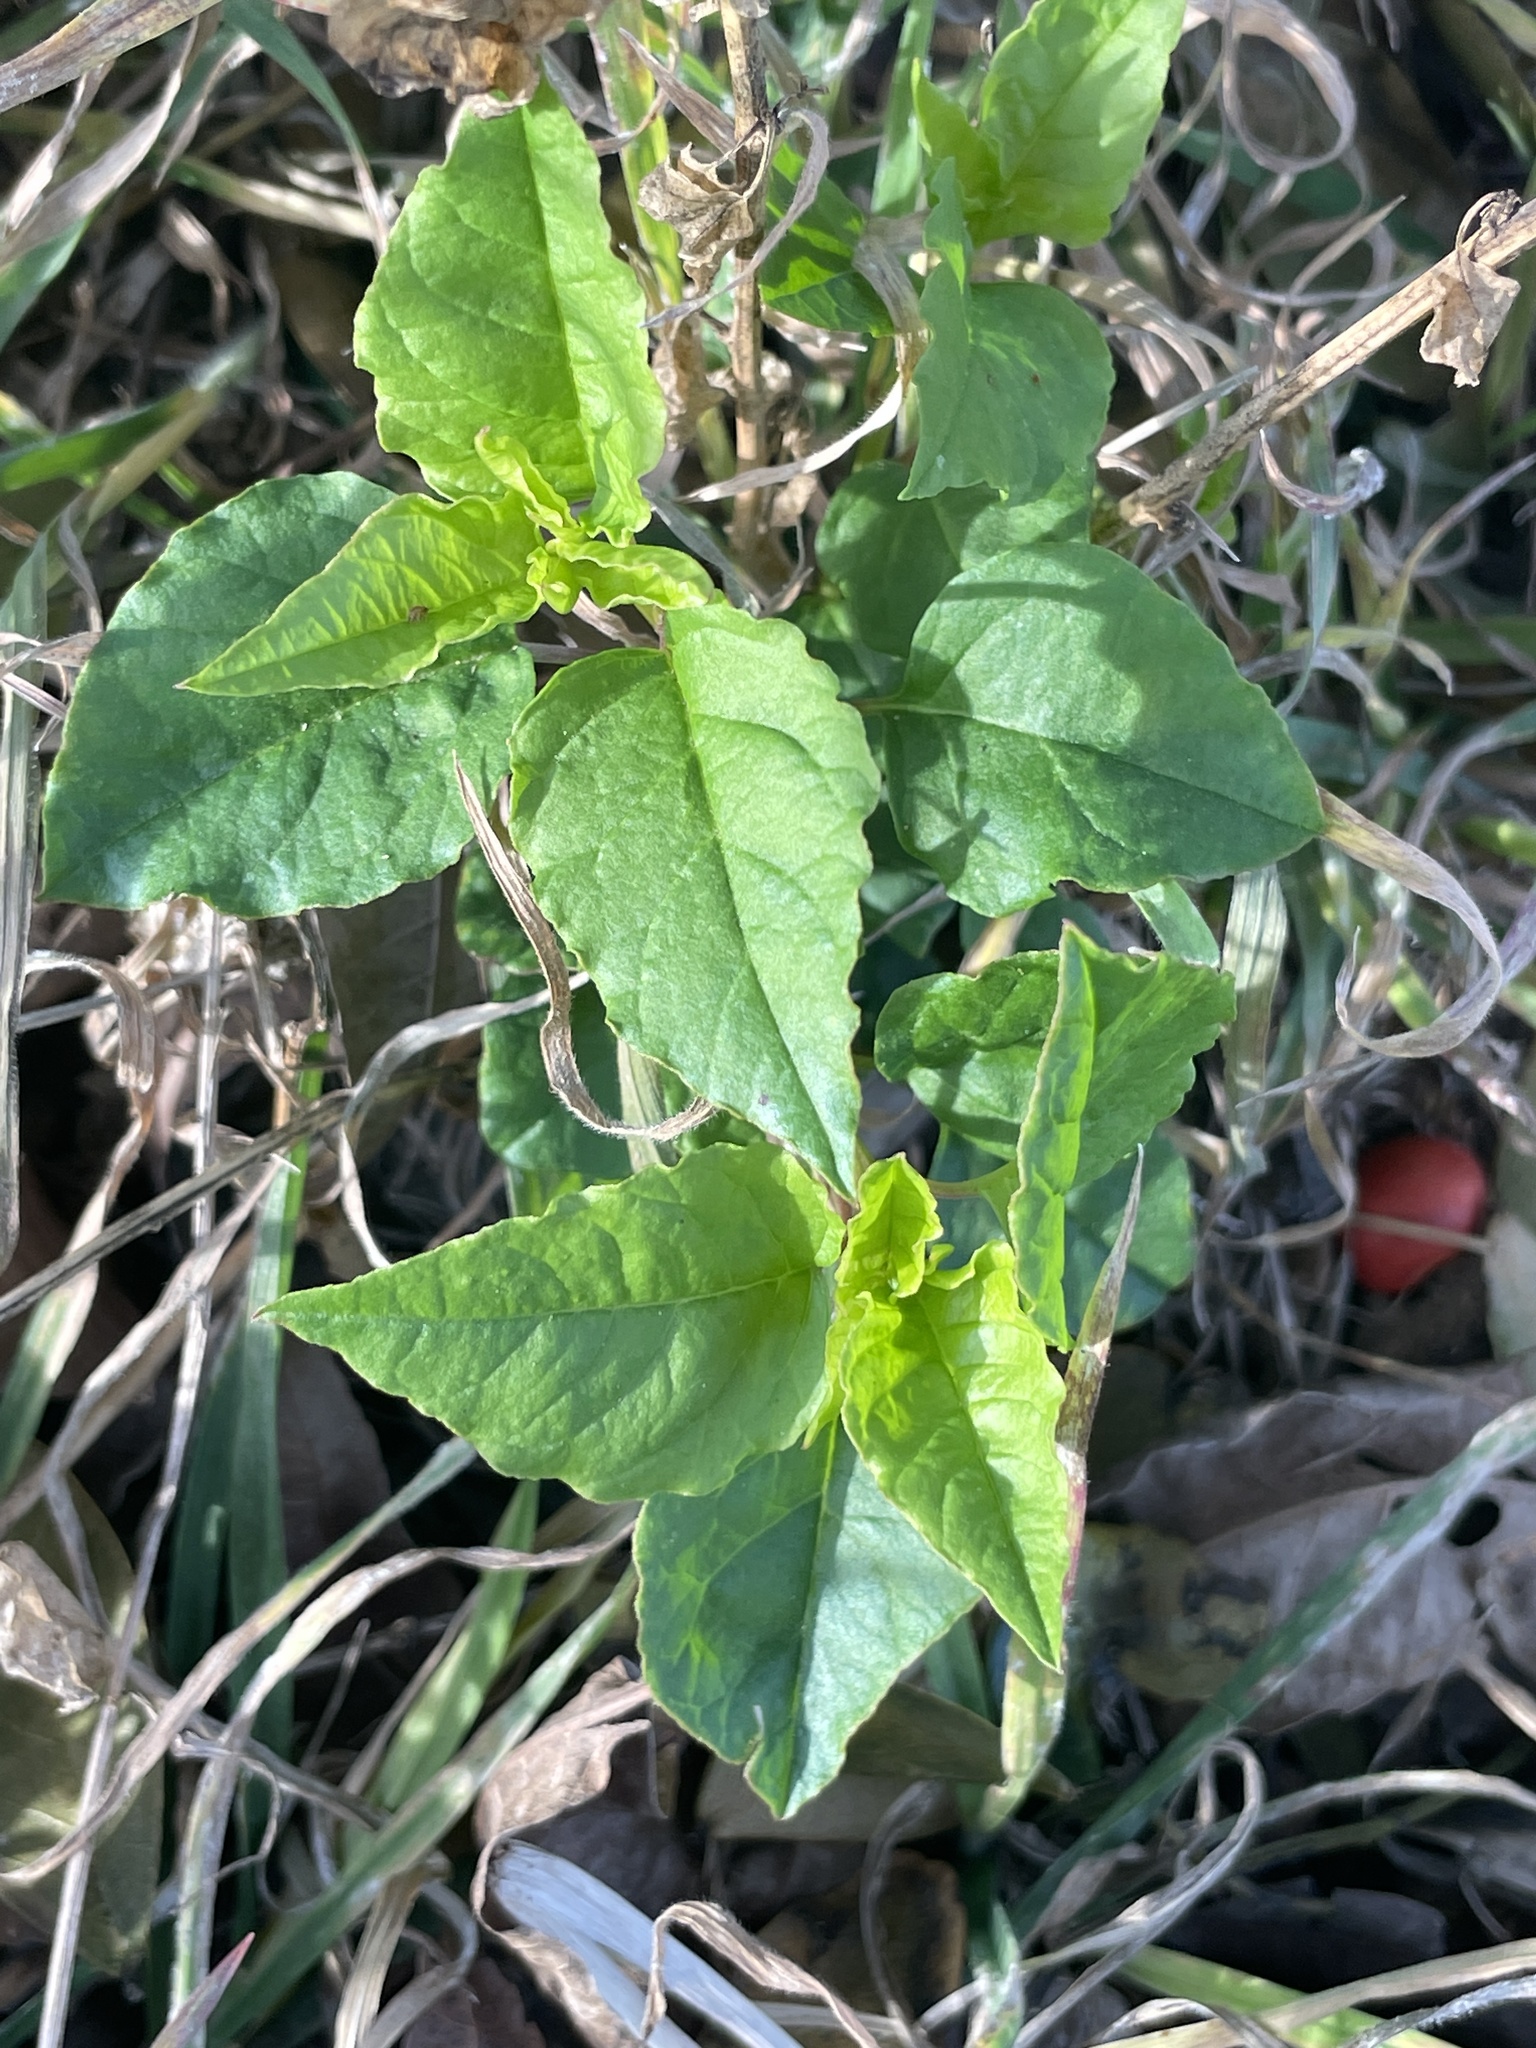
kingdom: Plantae
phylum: Tracheophyta
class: Magnoliopsida
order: Caryophyllales
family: Phytolaccaceae
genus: Rivina
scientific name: Rivina humilis
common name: Rougeplant
